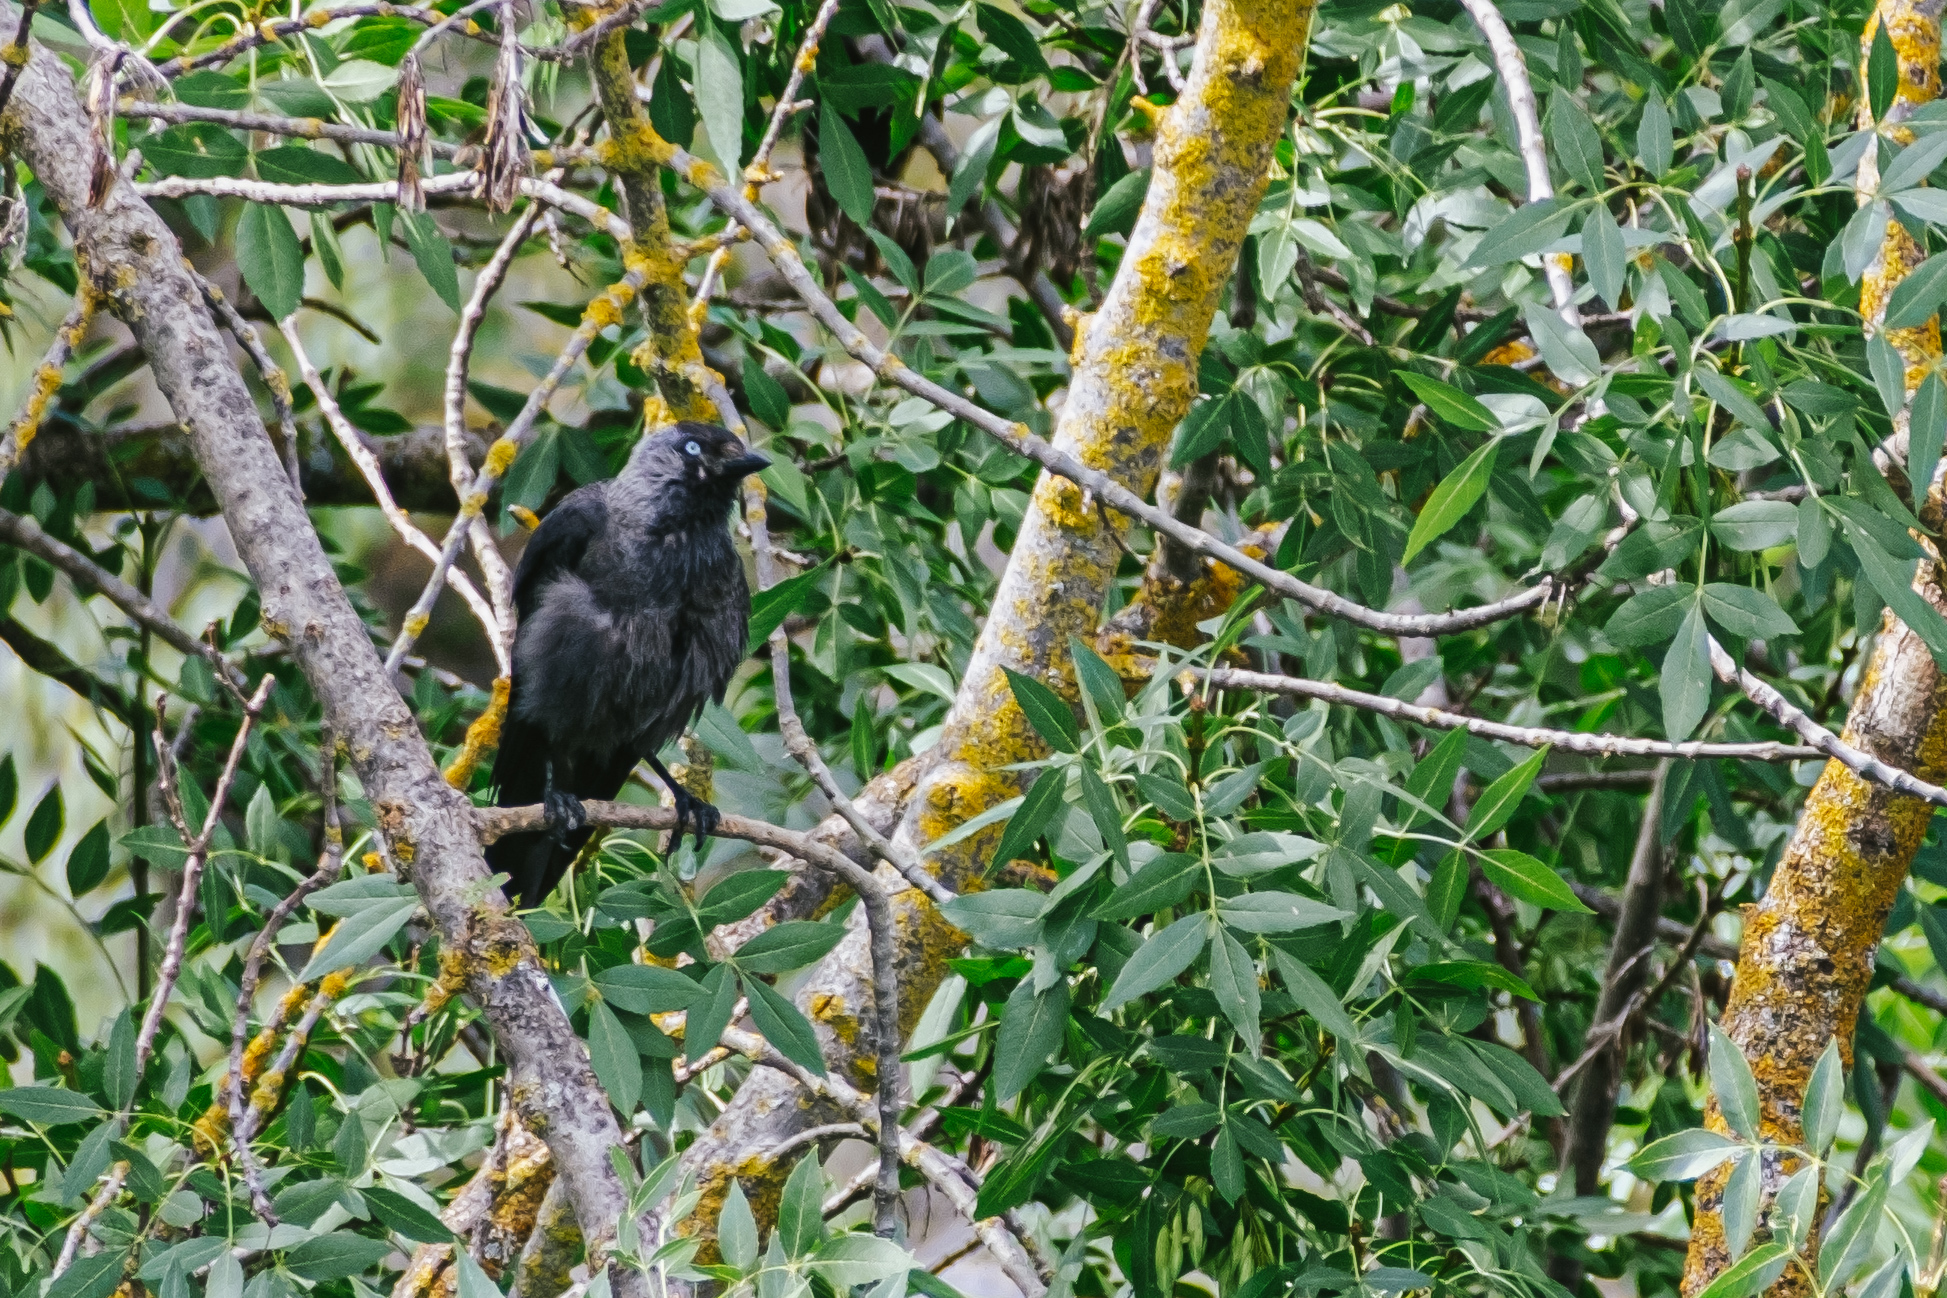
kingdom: Animalia
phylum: Chordata
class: Aves
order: Passeriformes
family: Corvidae
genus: Coloeus
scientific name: Coloeus monedula
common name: Western jackdaw
